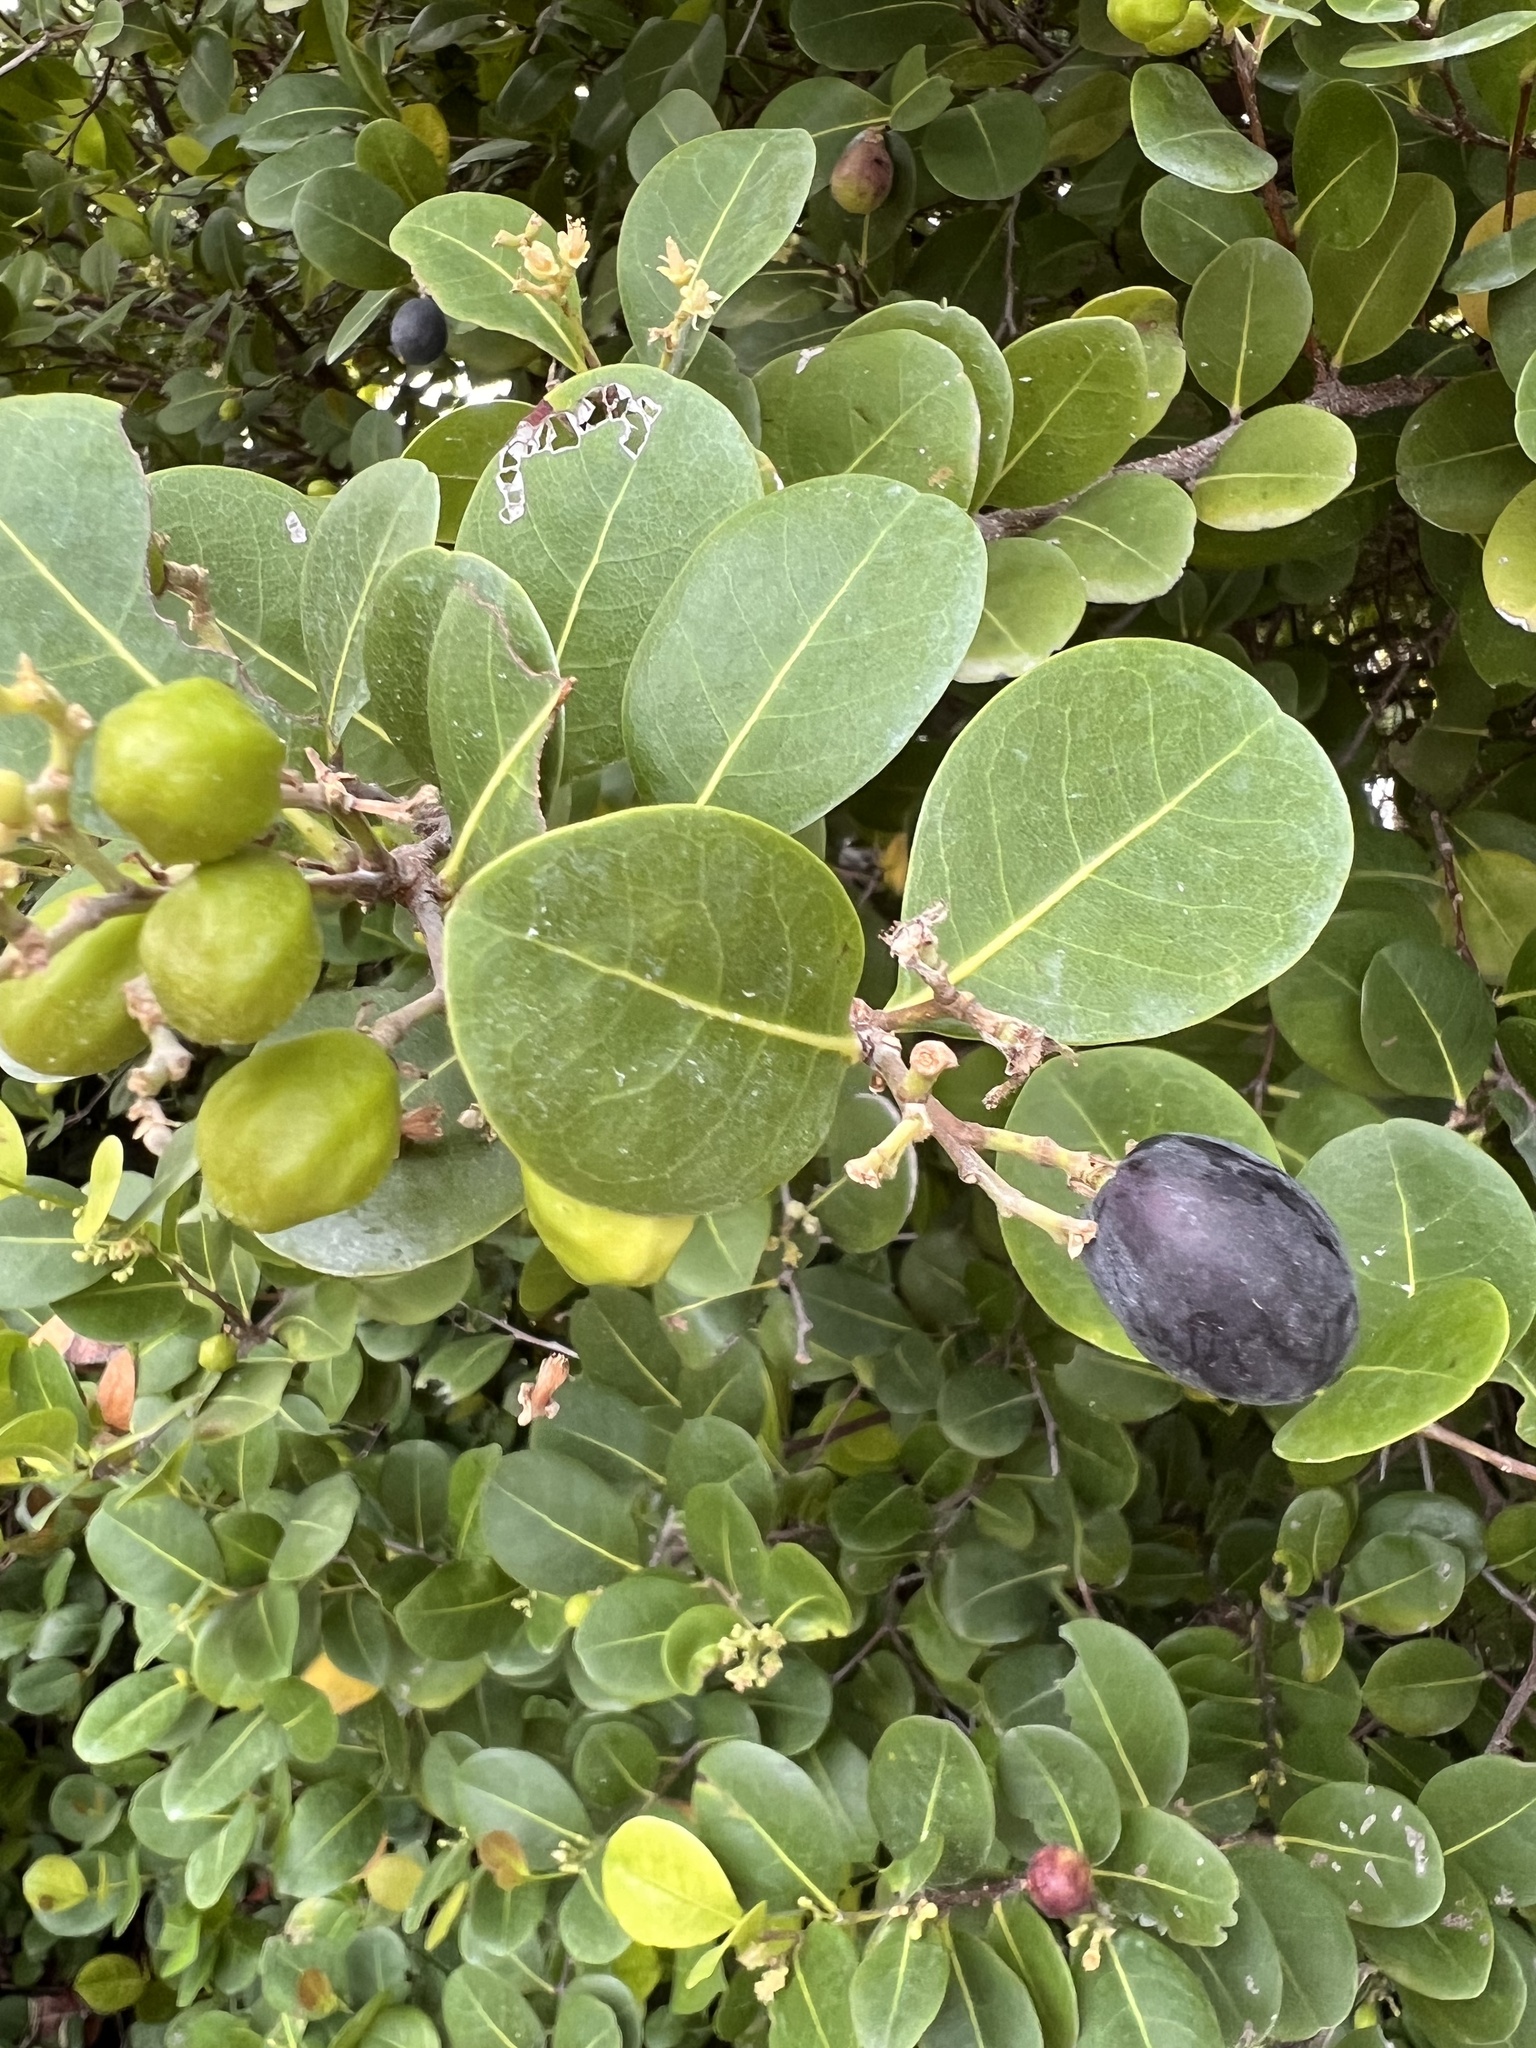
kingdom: Plantae
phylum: Tracheophyta
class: Magnoliopsida
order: Malpighiales
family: Chrysobalanaceae
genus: Chrysobalanus
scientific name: Chrysobalanus icaco
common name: Coco plum
